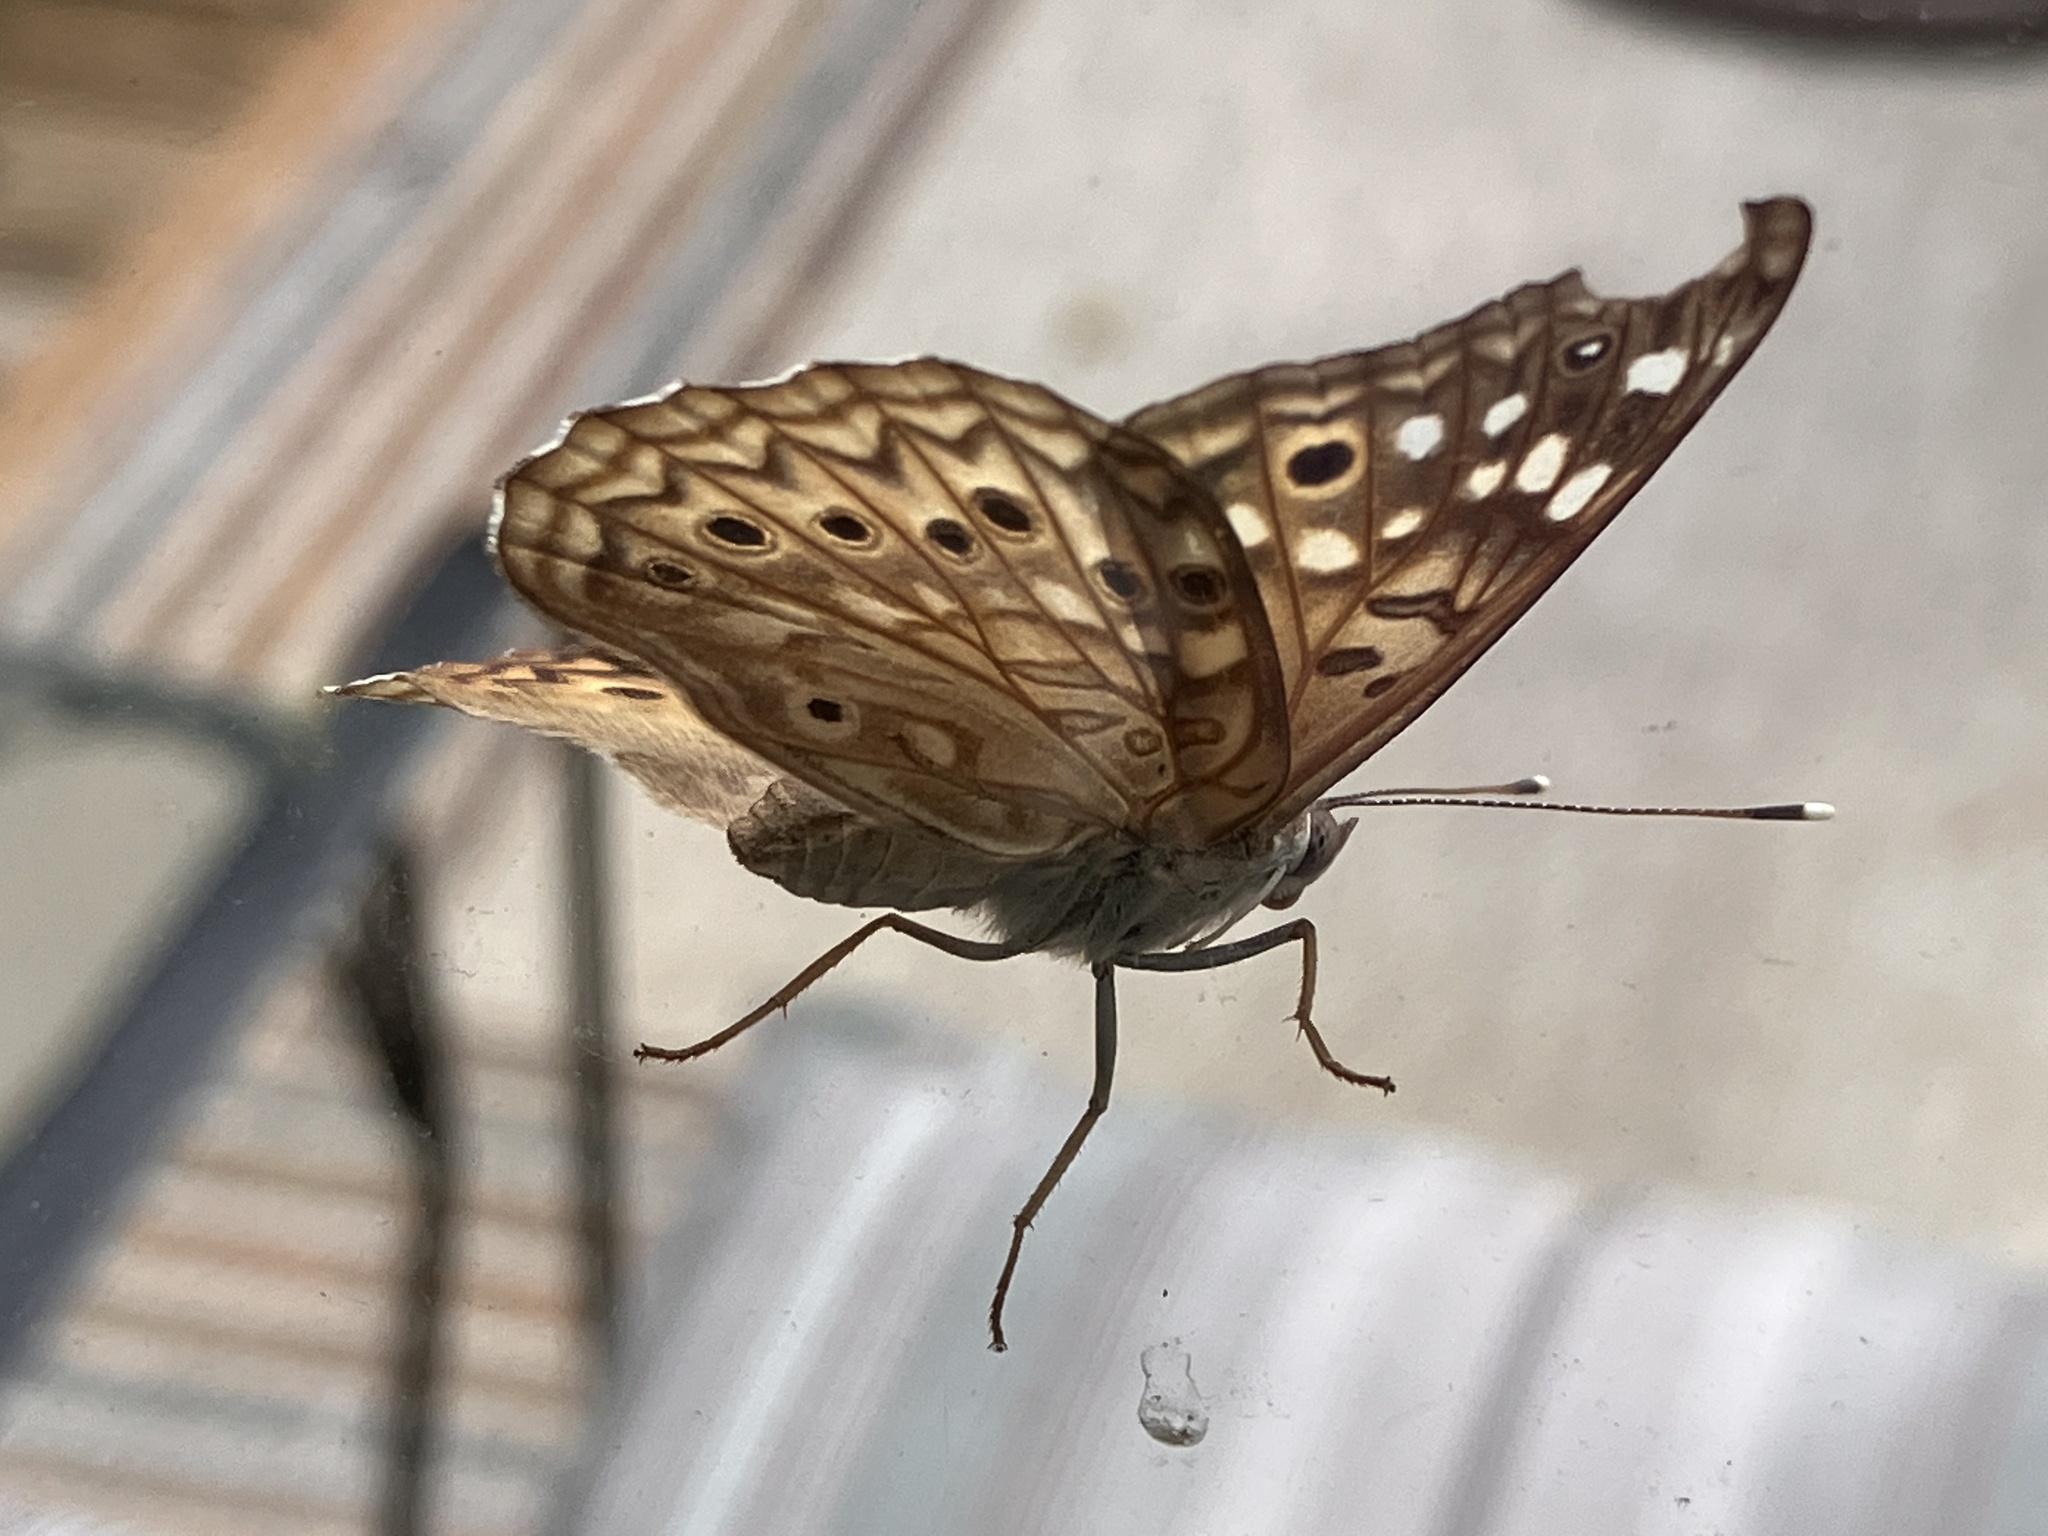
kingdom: Animalia
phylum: Arthropoda
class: Insecta
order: Lepidoptera
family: Nymphalidae
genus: Asterocampa
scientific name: Asterocampa celtis
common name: Hackberry emperor
